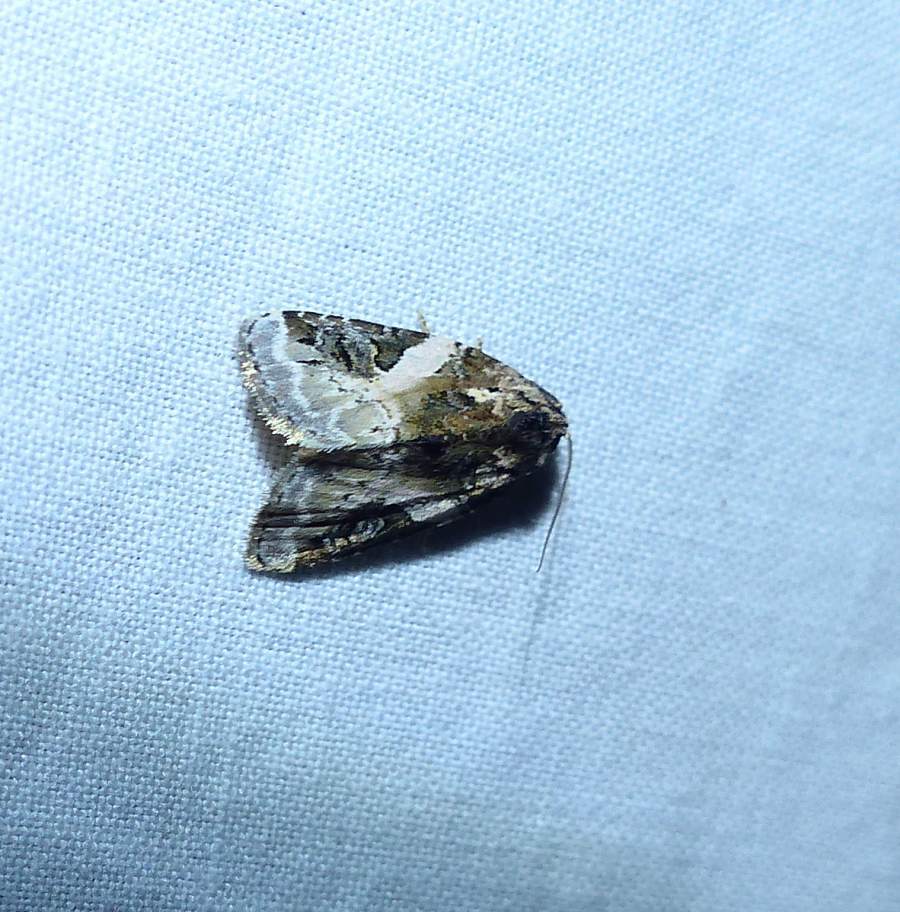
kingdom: Animalia
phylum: Arthropoda
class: Insecta
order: Lepidoptera
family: Noctuidae
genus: Pseudeustrotia
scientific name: Pseudeustrotia carneola
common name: Pink-barred lithacodia moth
